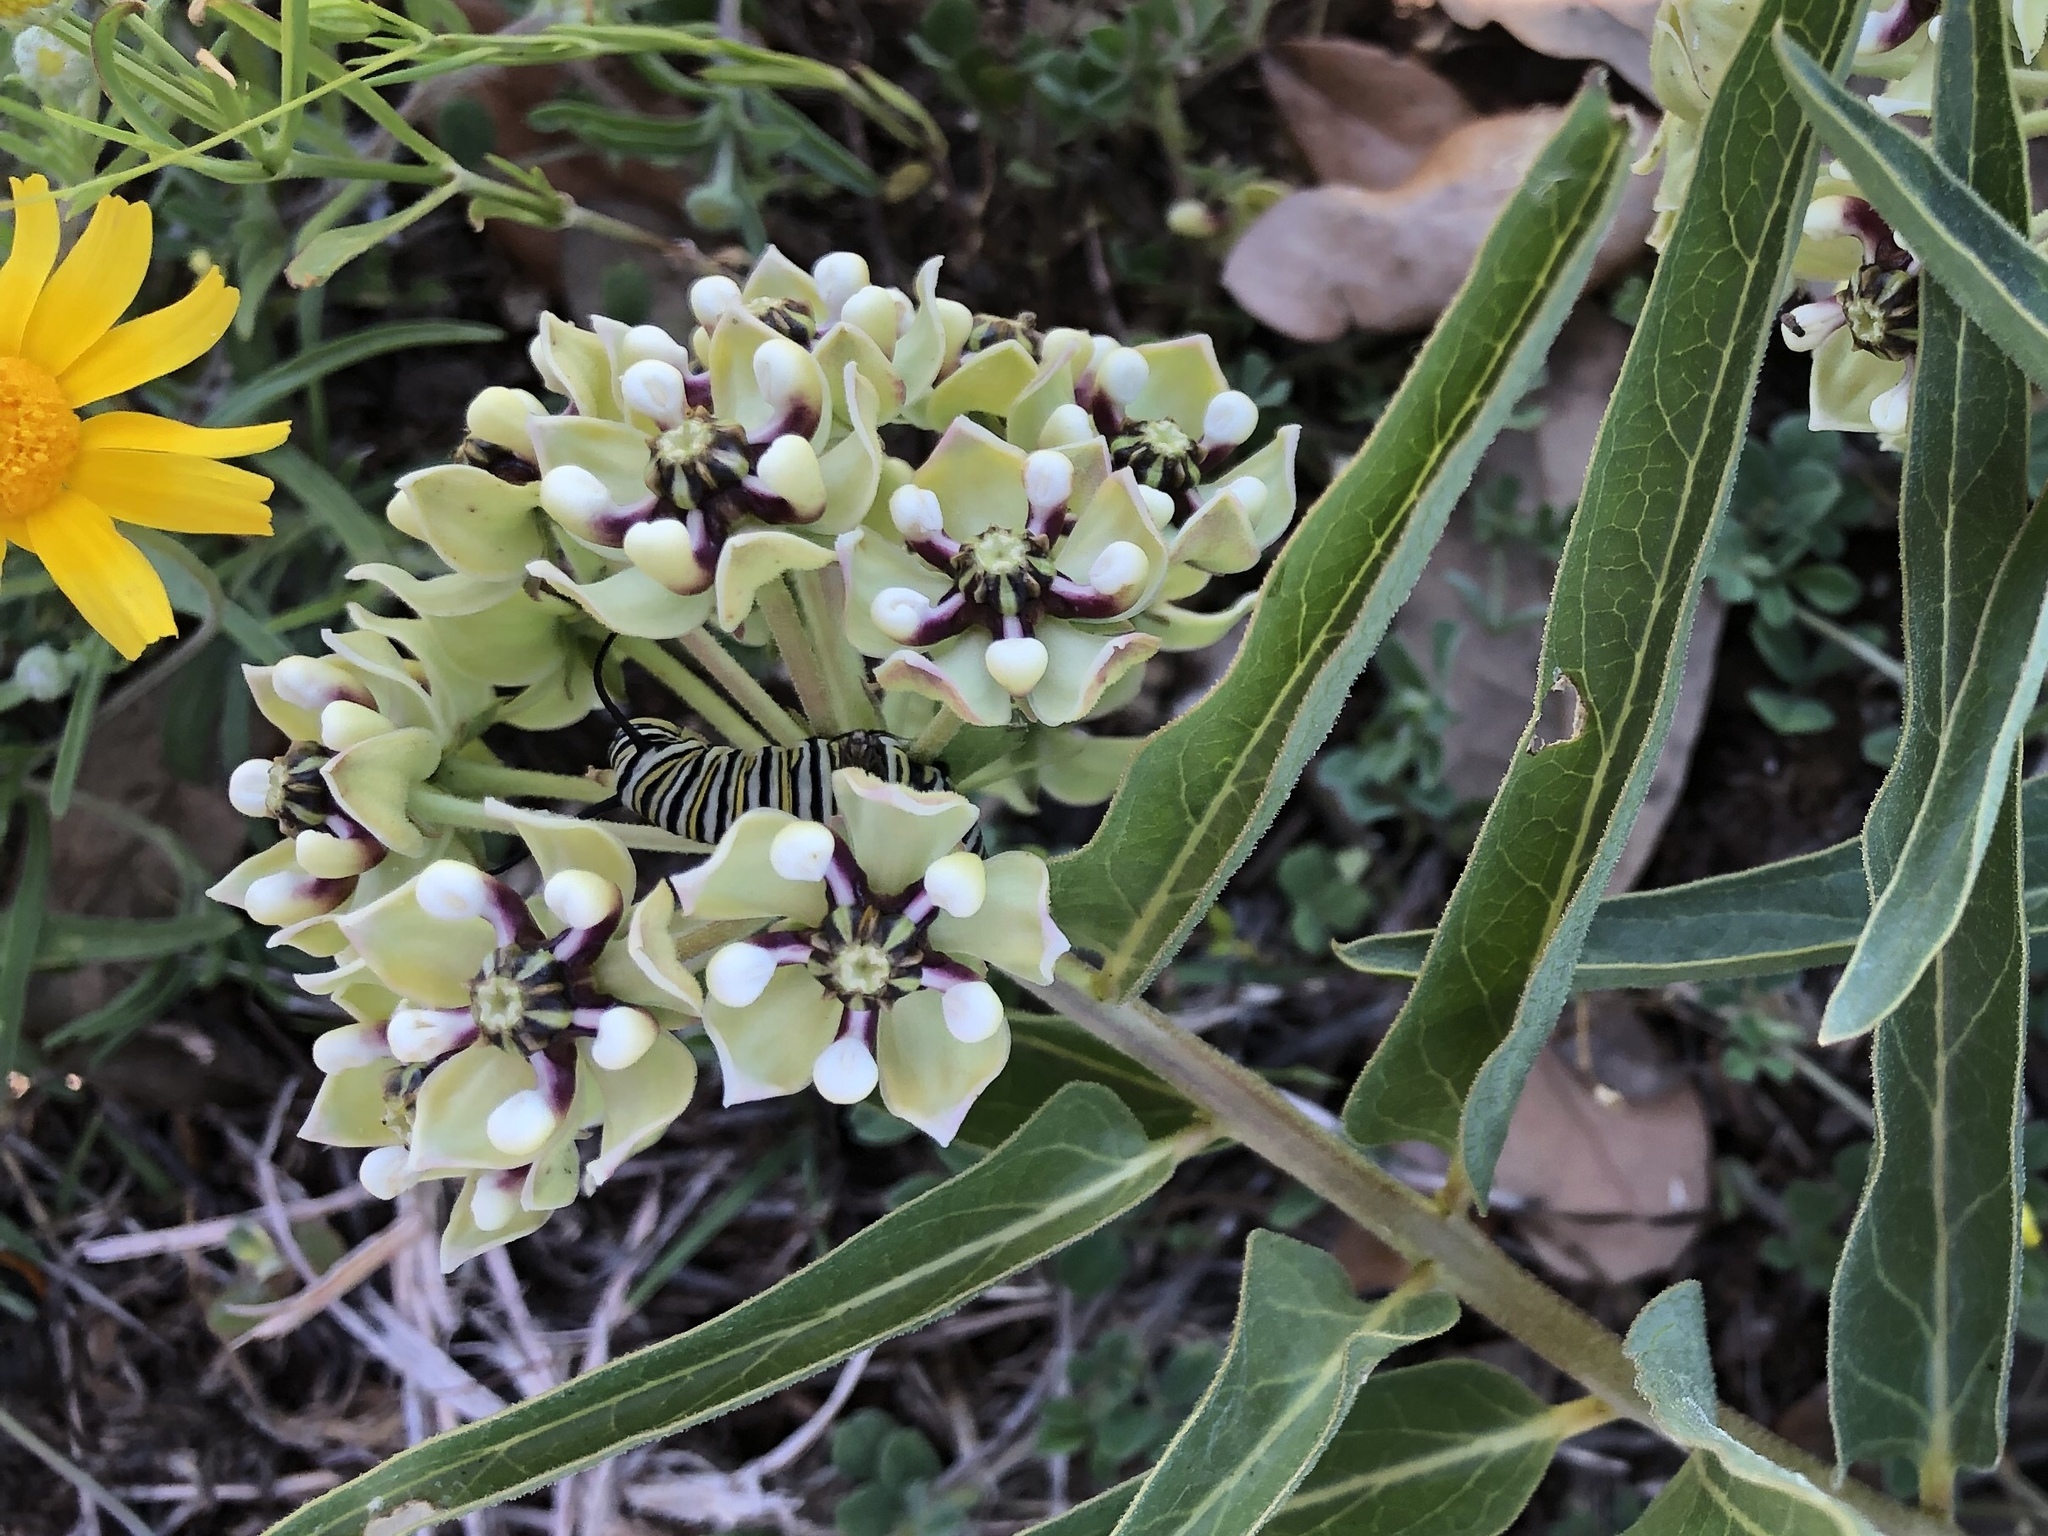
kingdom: Plantae
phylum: Tracheophyta
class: Magnoliopsida
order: Gentianales
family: Apocynaceae
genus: Asclepias
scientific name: Asclepias asperula
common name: Antelope horns
